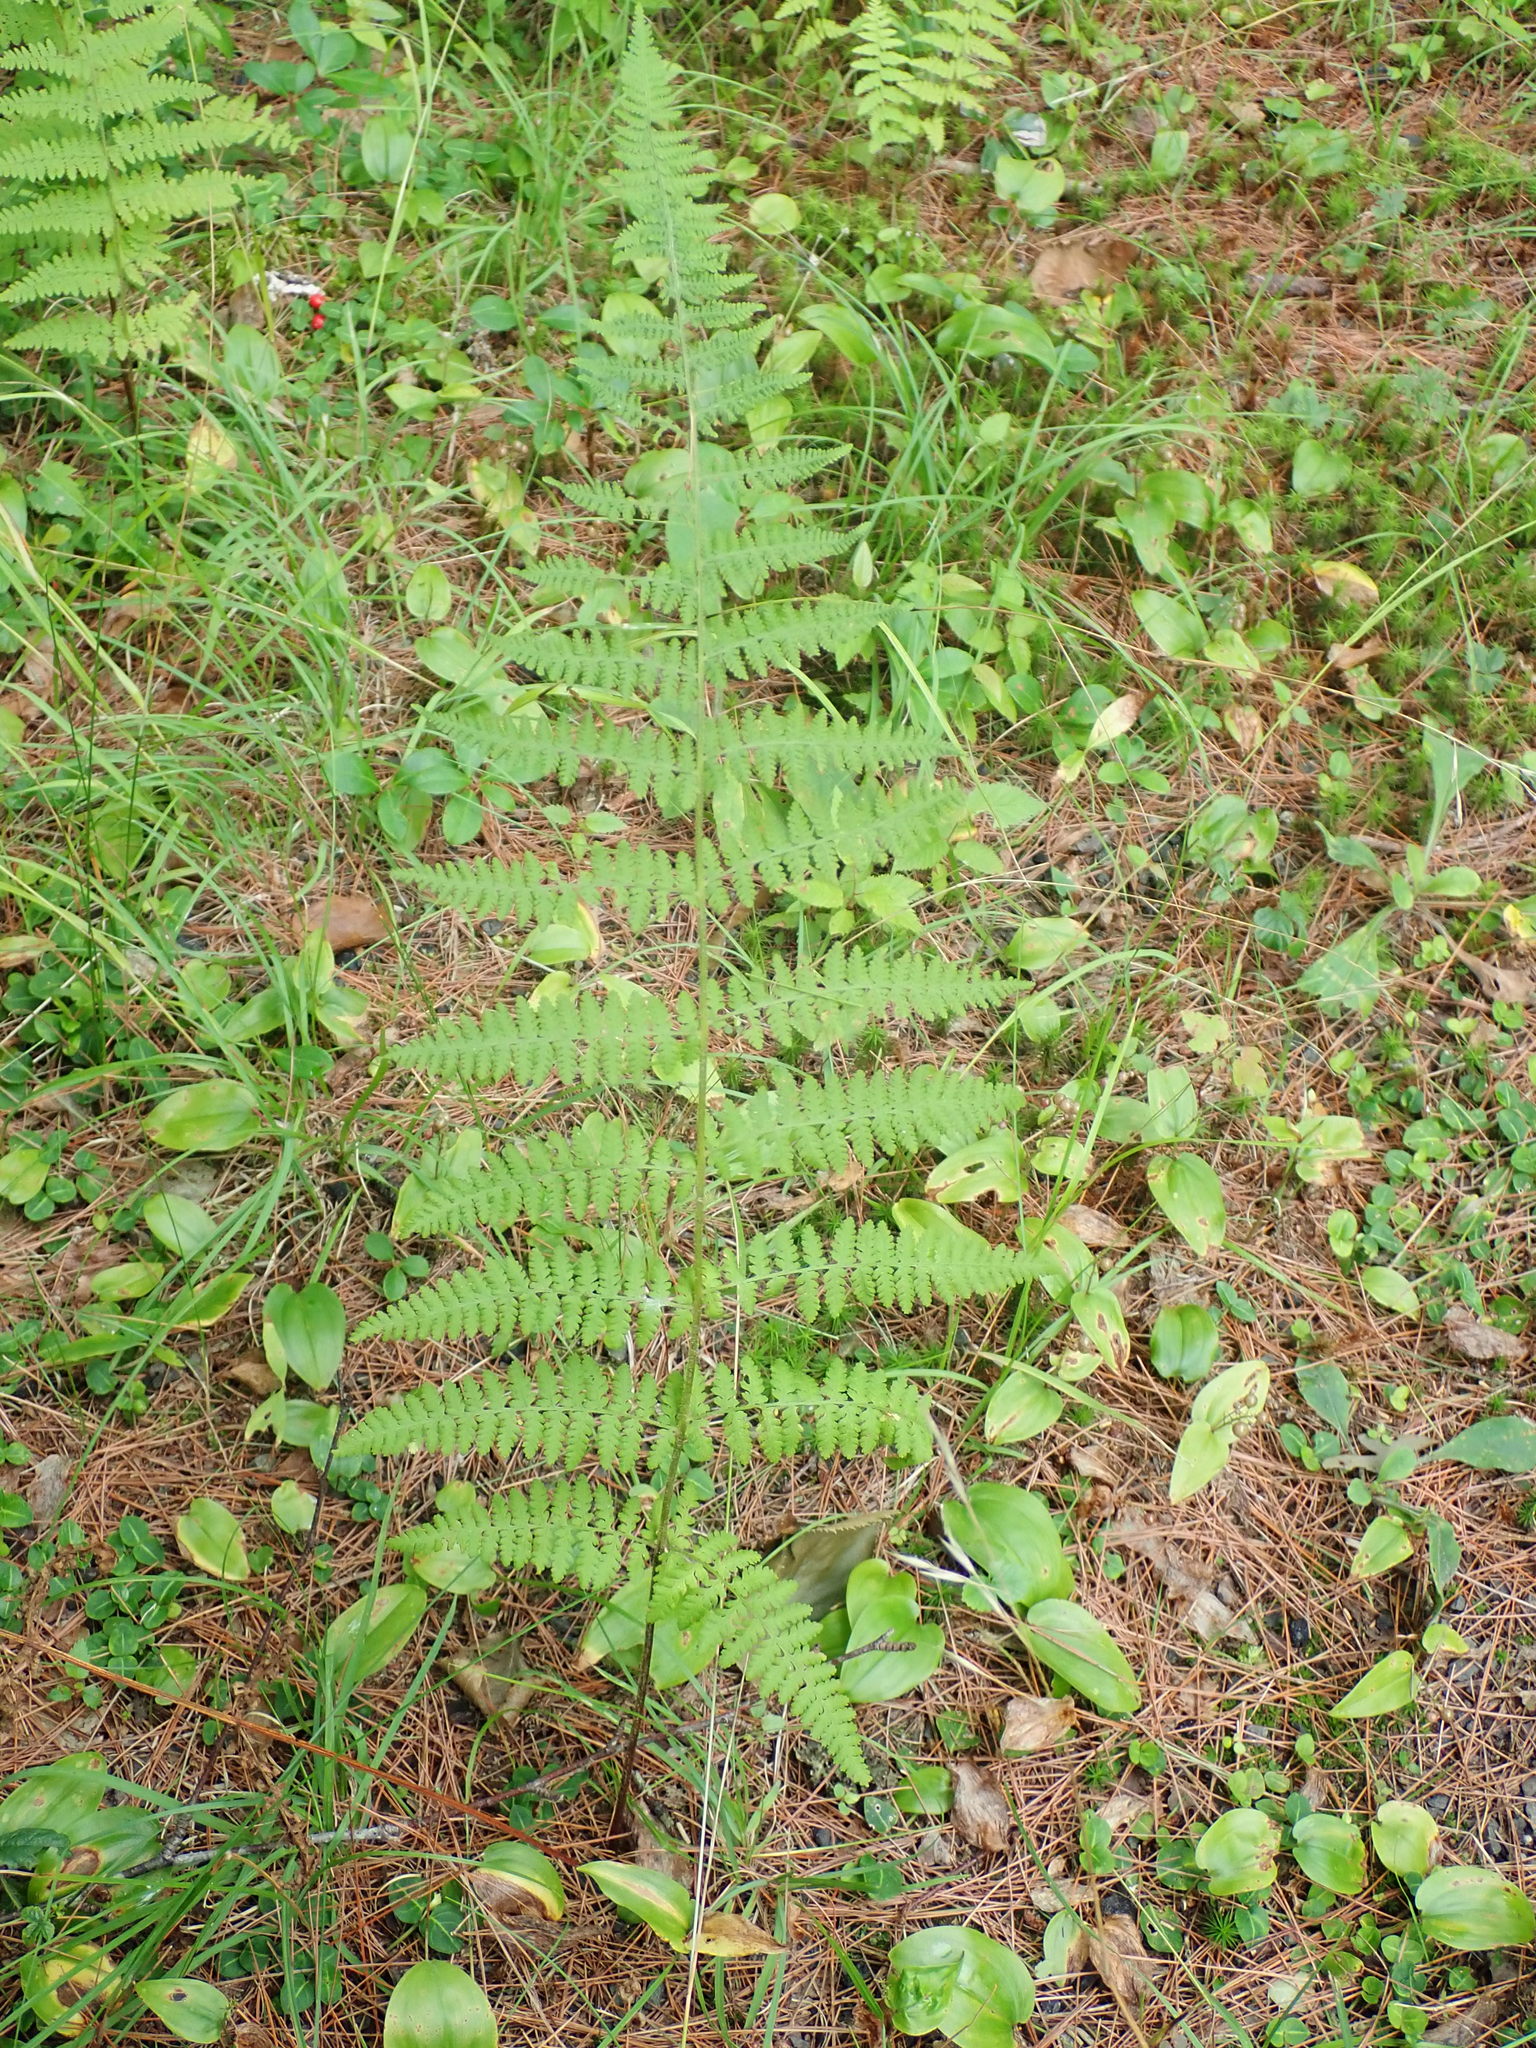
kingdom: Plantae
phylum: Tracheophyta
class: Polypodiopsida
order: Polypodiales
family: Dennstaedtiaceae
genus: Sitobolium
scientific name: Sitobolium punctilobum
